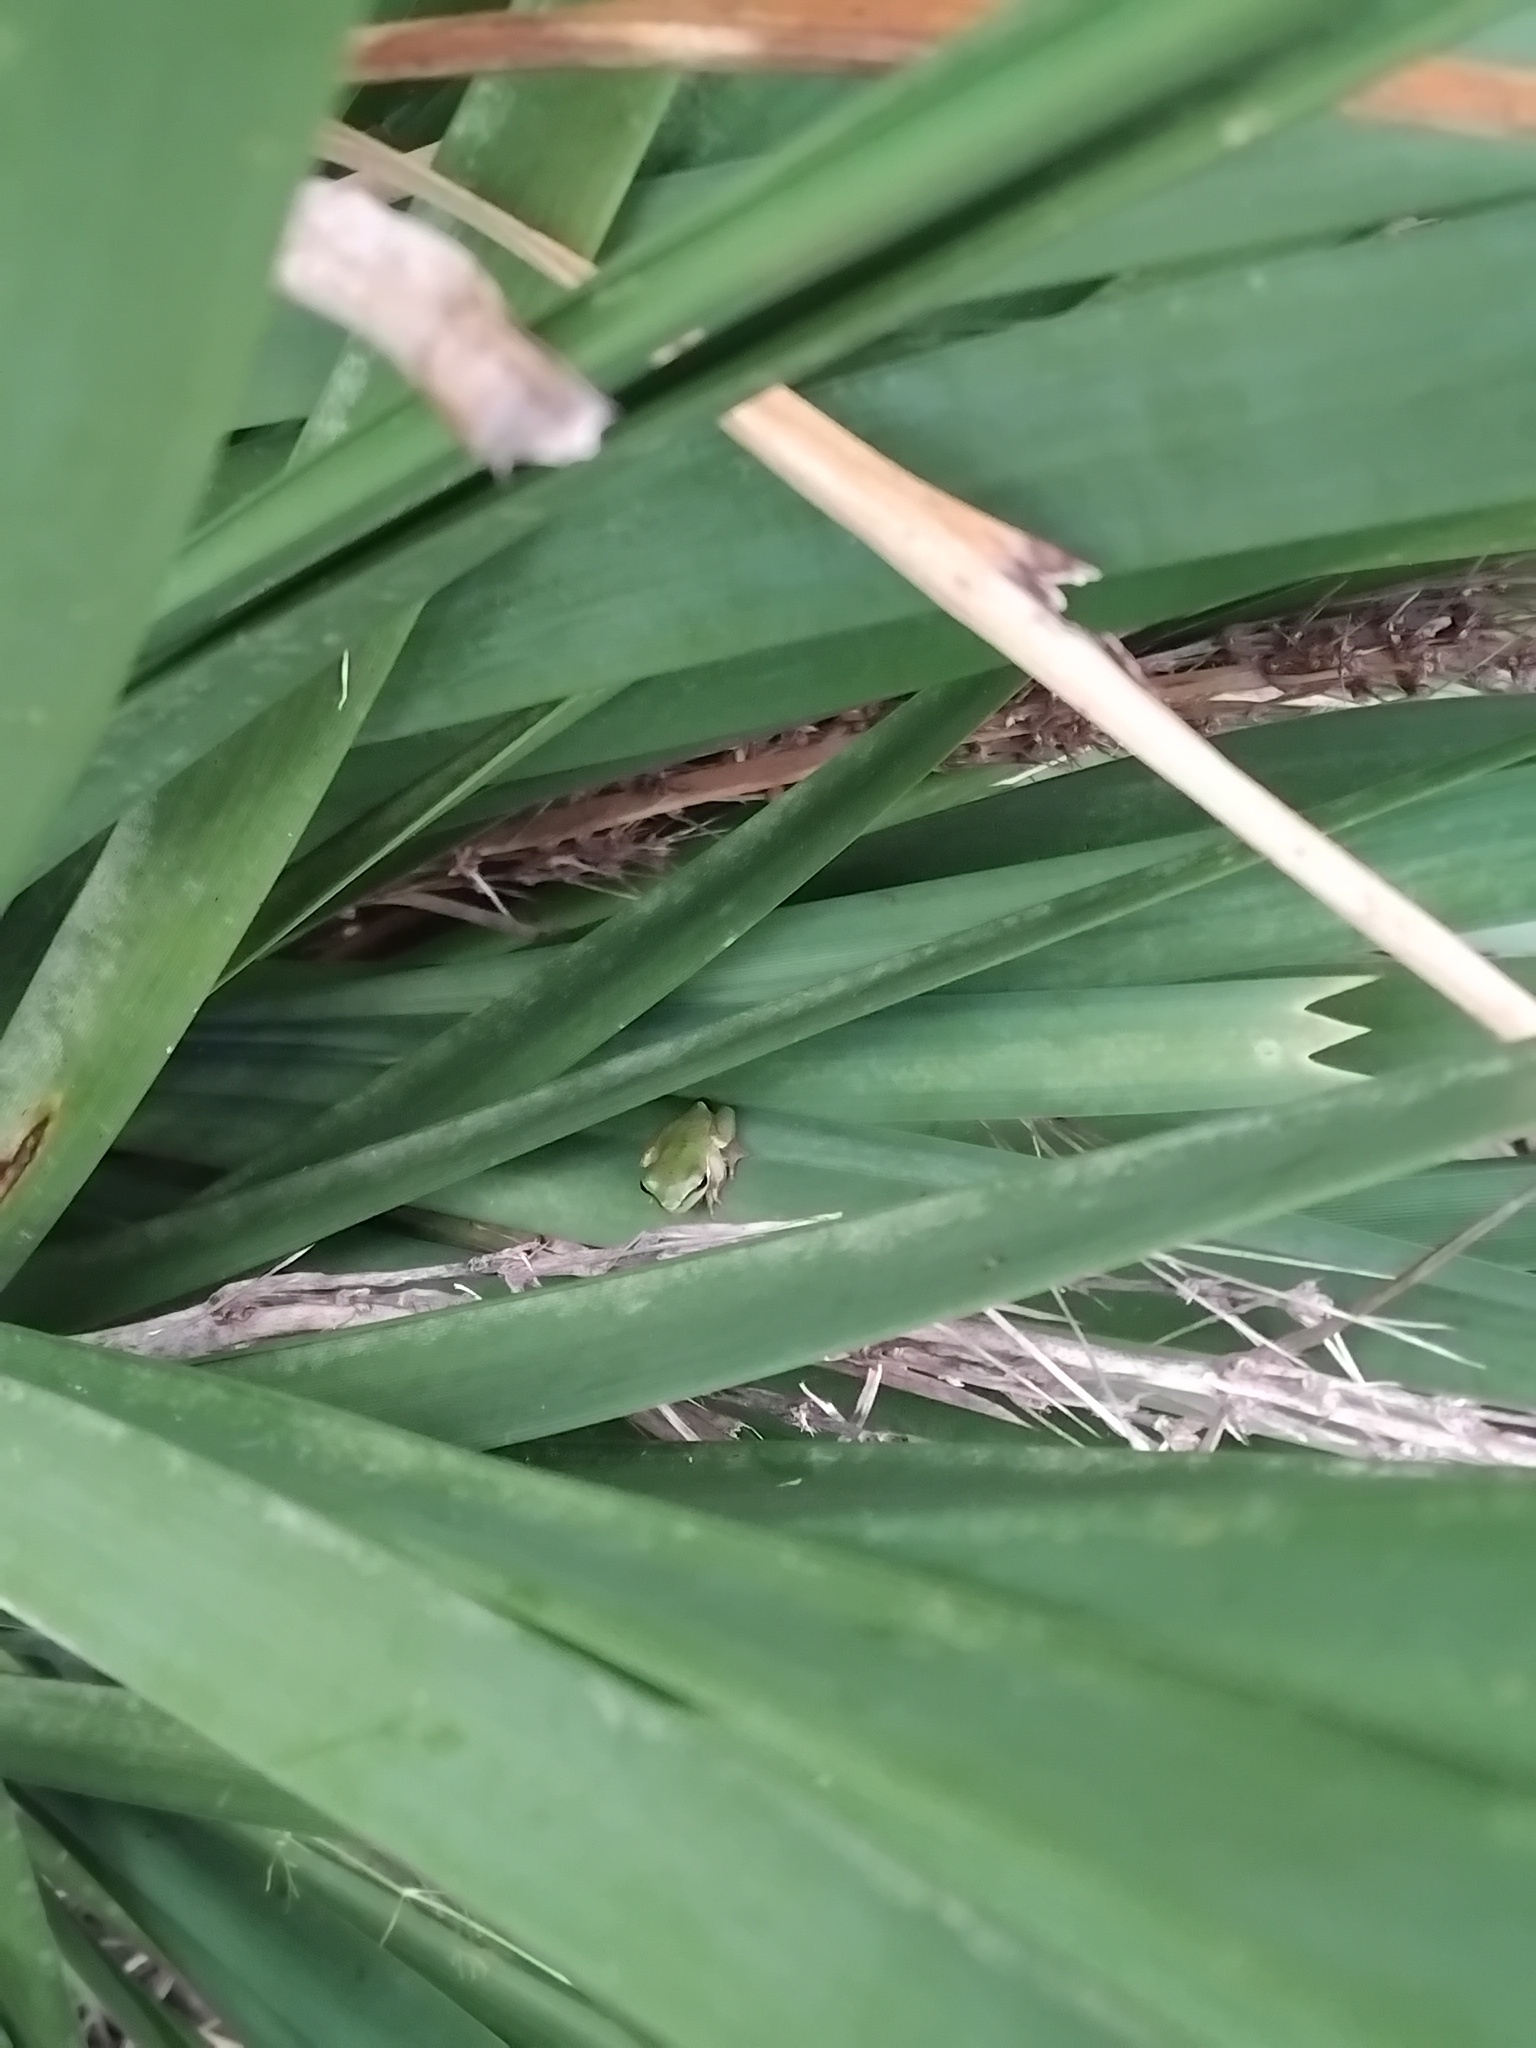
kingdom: Animalia
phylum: Chordata
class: Amphibia
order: Anura
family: Pelodryadidae
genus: Litoria
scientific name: Litoria fallax
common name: Eastern dwarf treefrog
